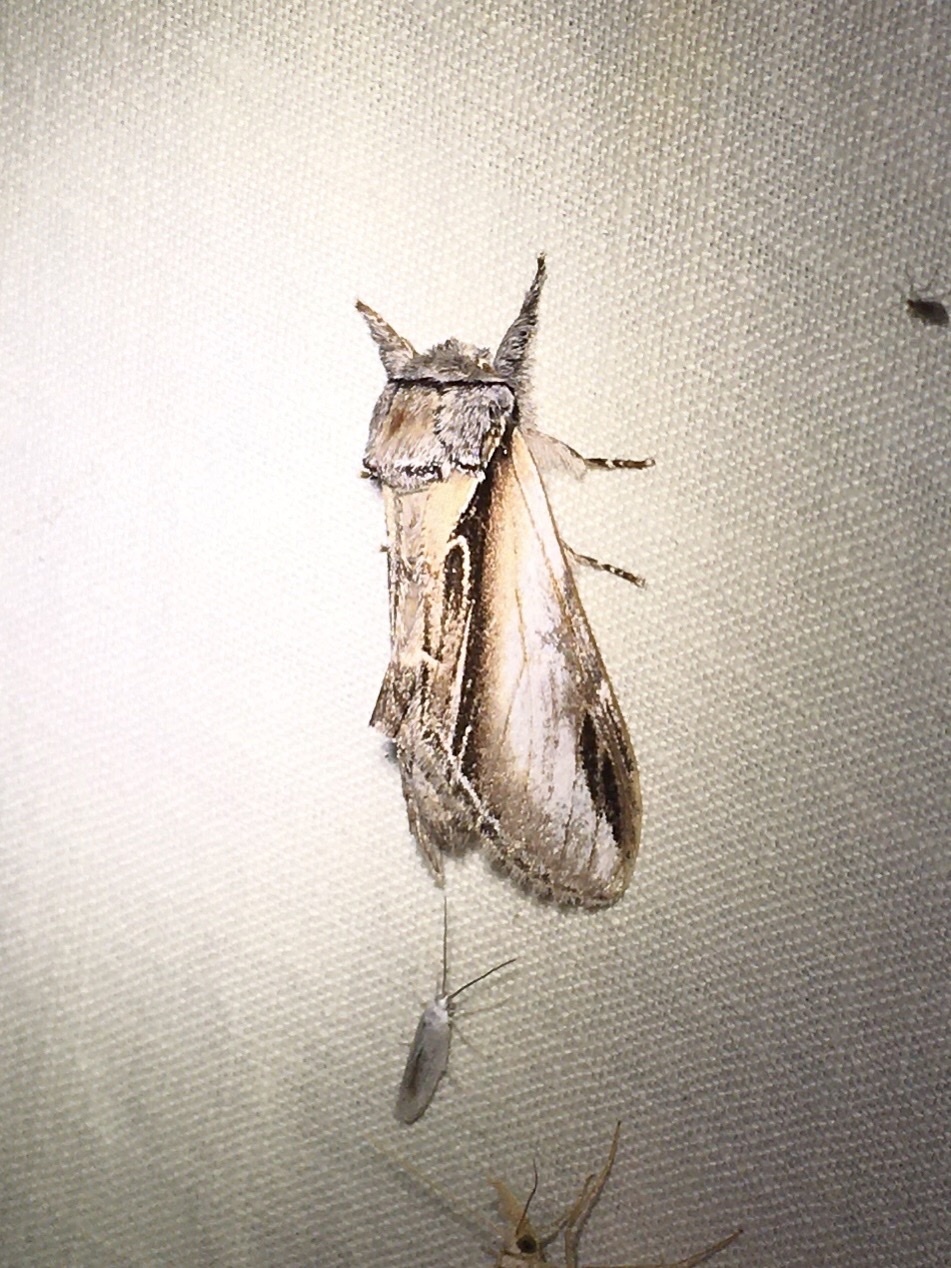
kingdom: Animalia
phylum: Arthropoda
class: Insecta
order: Lepidoptera
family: Notodontidae
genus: Pheosia
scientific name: Pheosia rimosa
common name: Black-rimmed prominent
